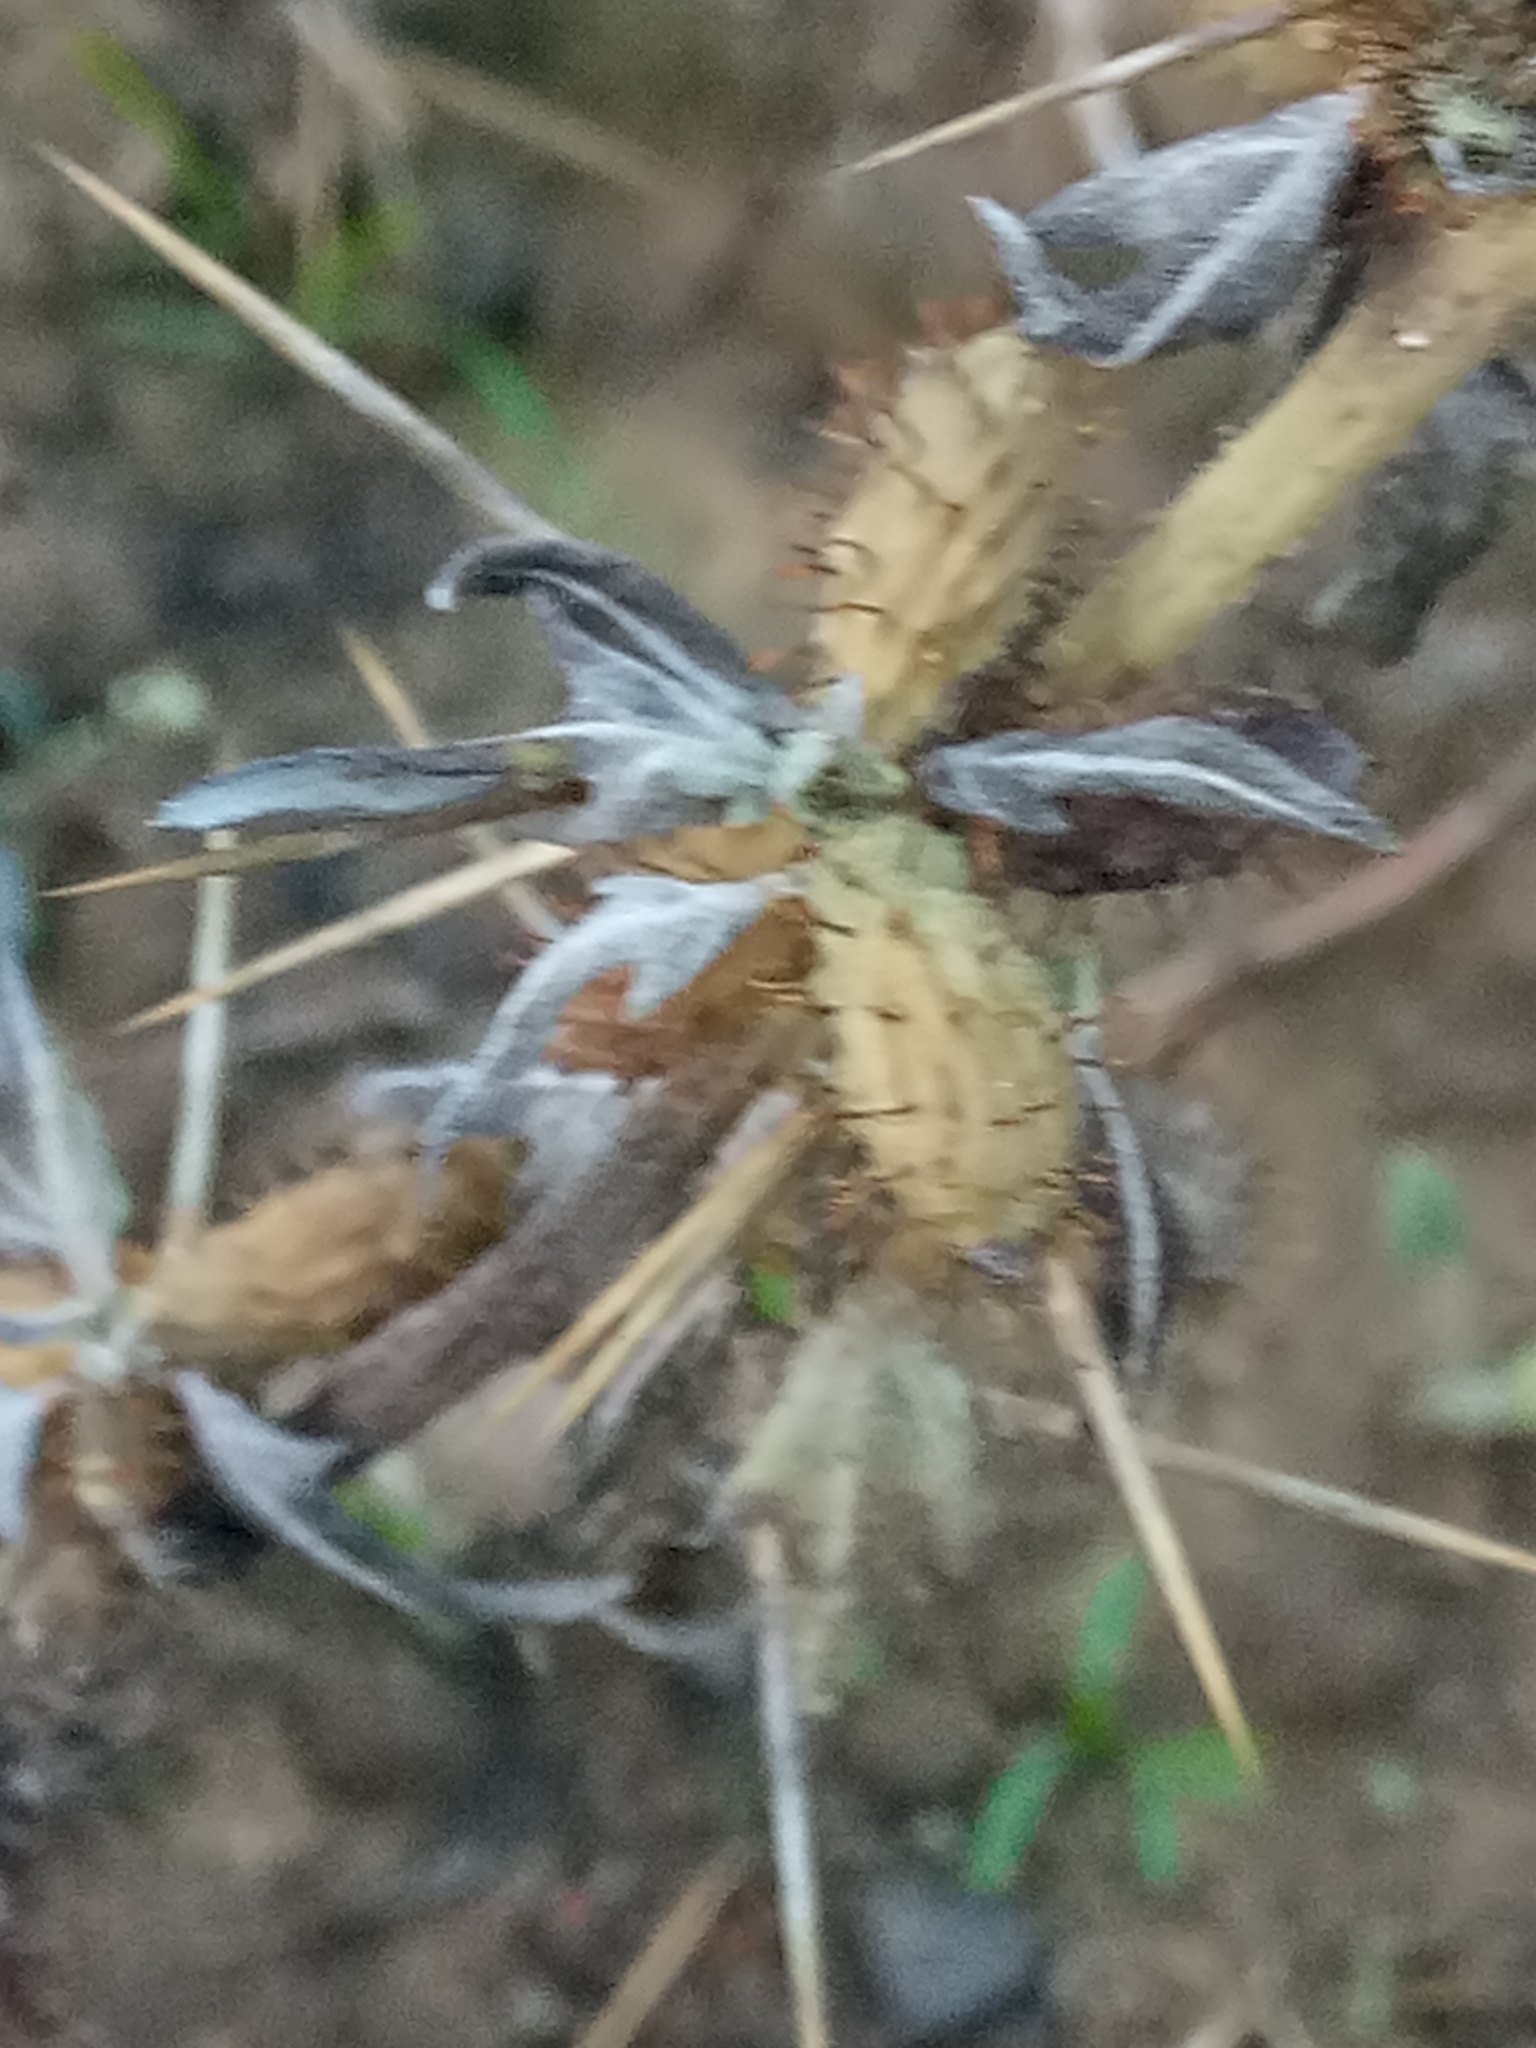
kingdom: Plantae
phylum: Tracheophyta
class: Magnoliopsida
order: Asterales
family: Asteraceae
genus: Xanthium
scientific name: Xanthium spinosum
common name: Spiny cocklebur
